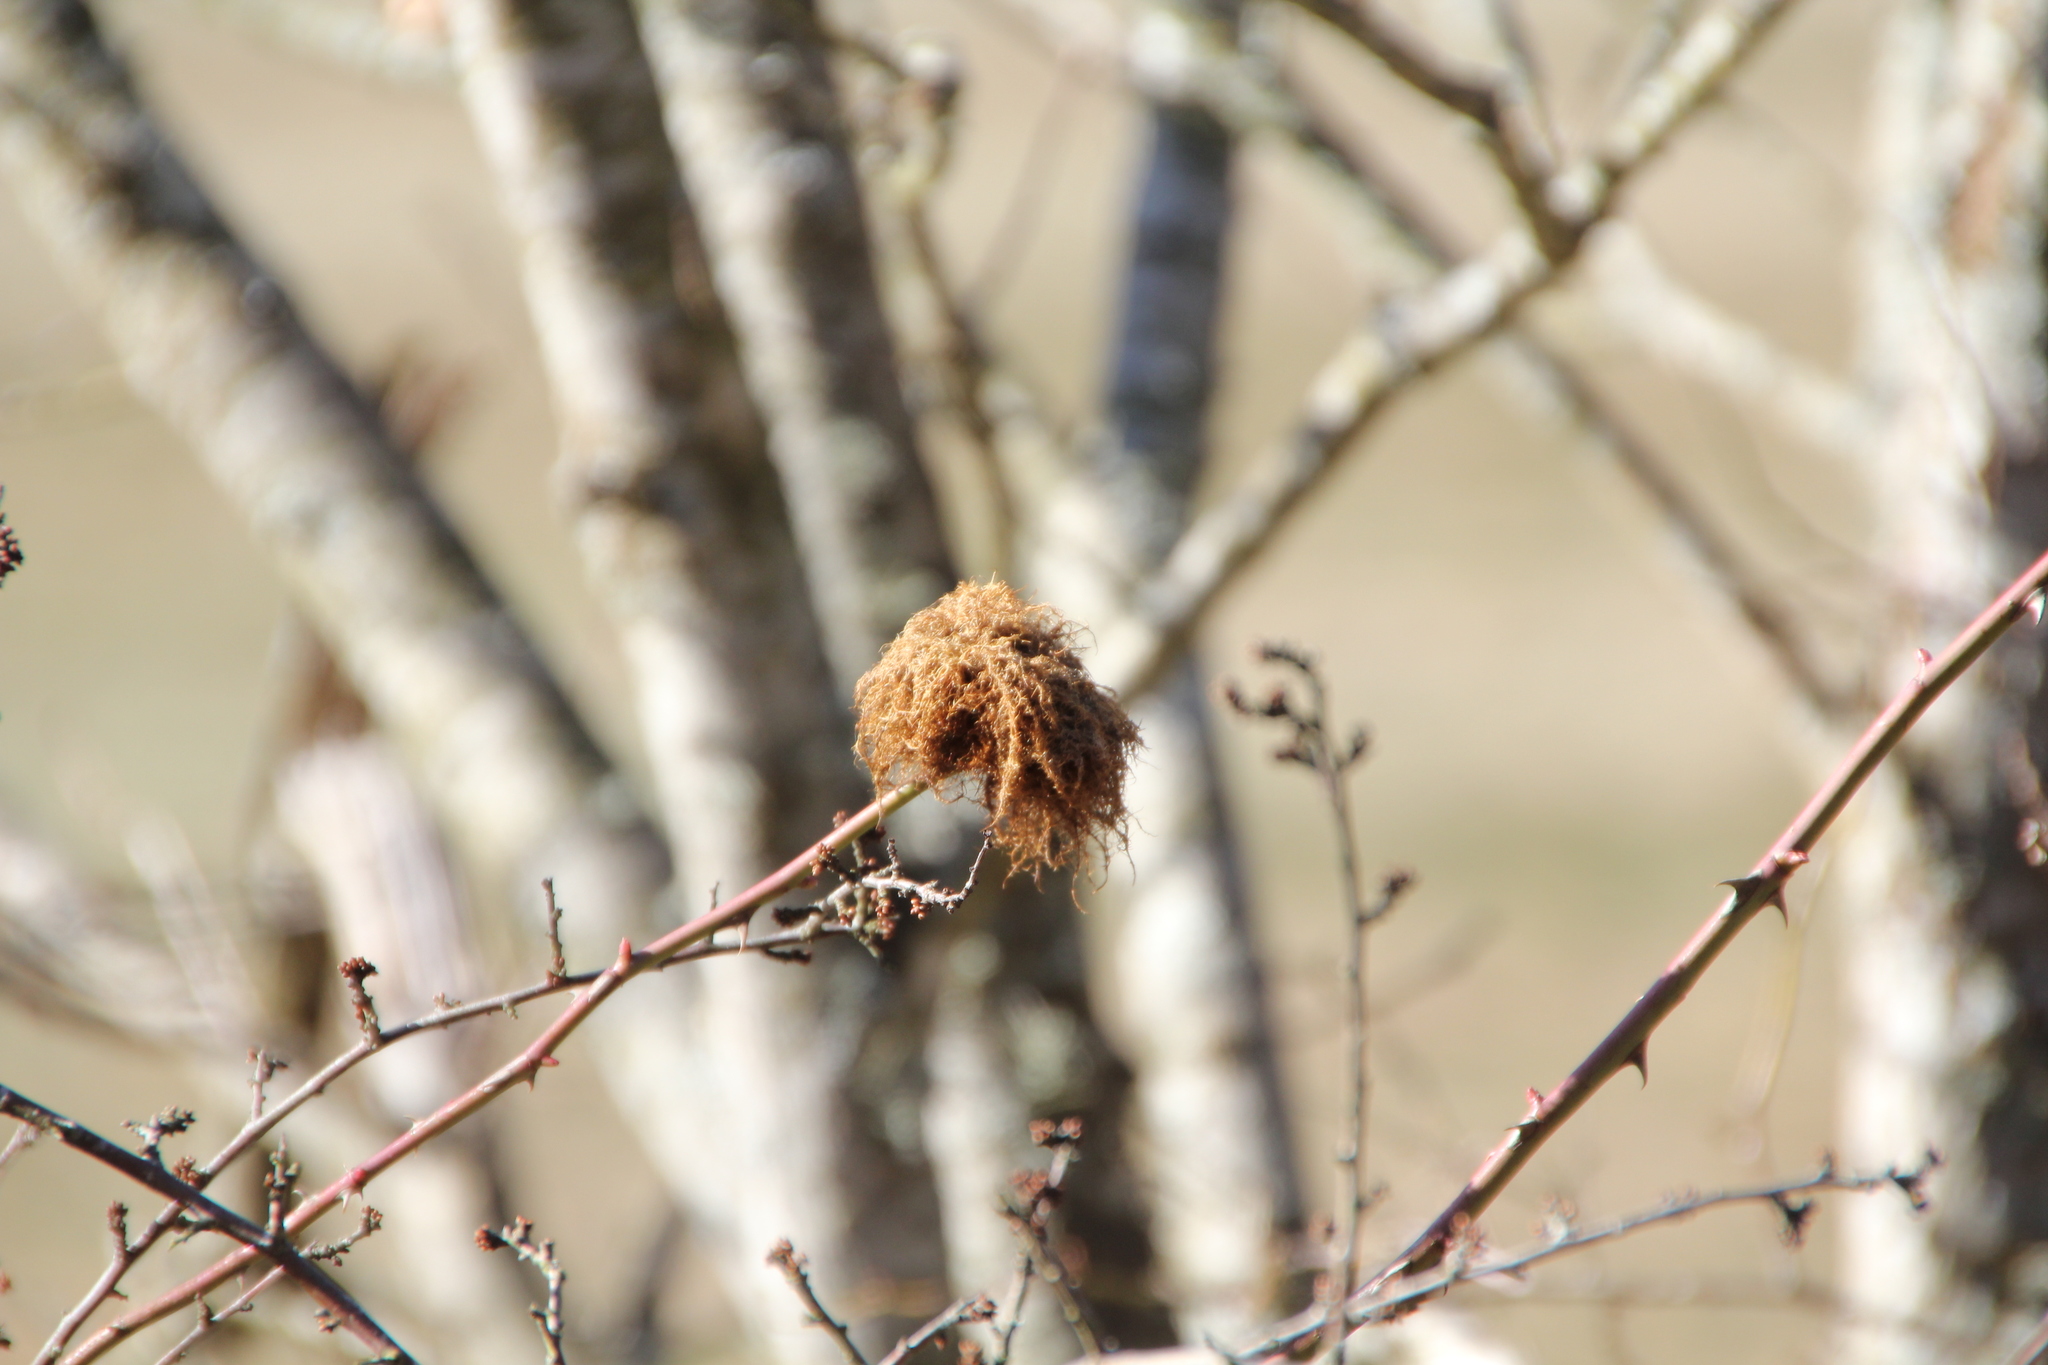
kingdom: Animalia
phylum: Arthropoda
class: Insecta
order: Hymenoptera
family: Cynipidae
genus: Diplolepis
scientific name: Diplolepis rosae
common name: Bedeguar gall
